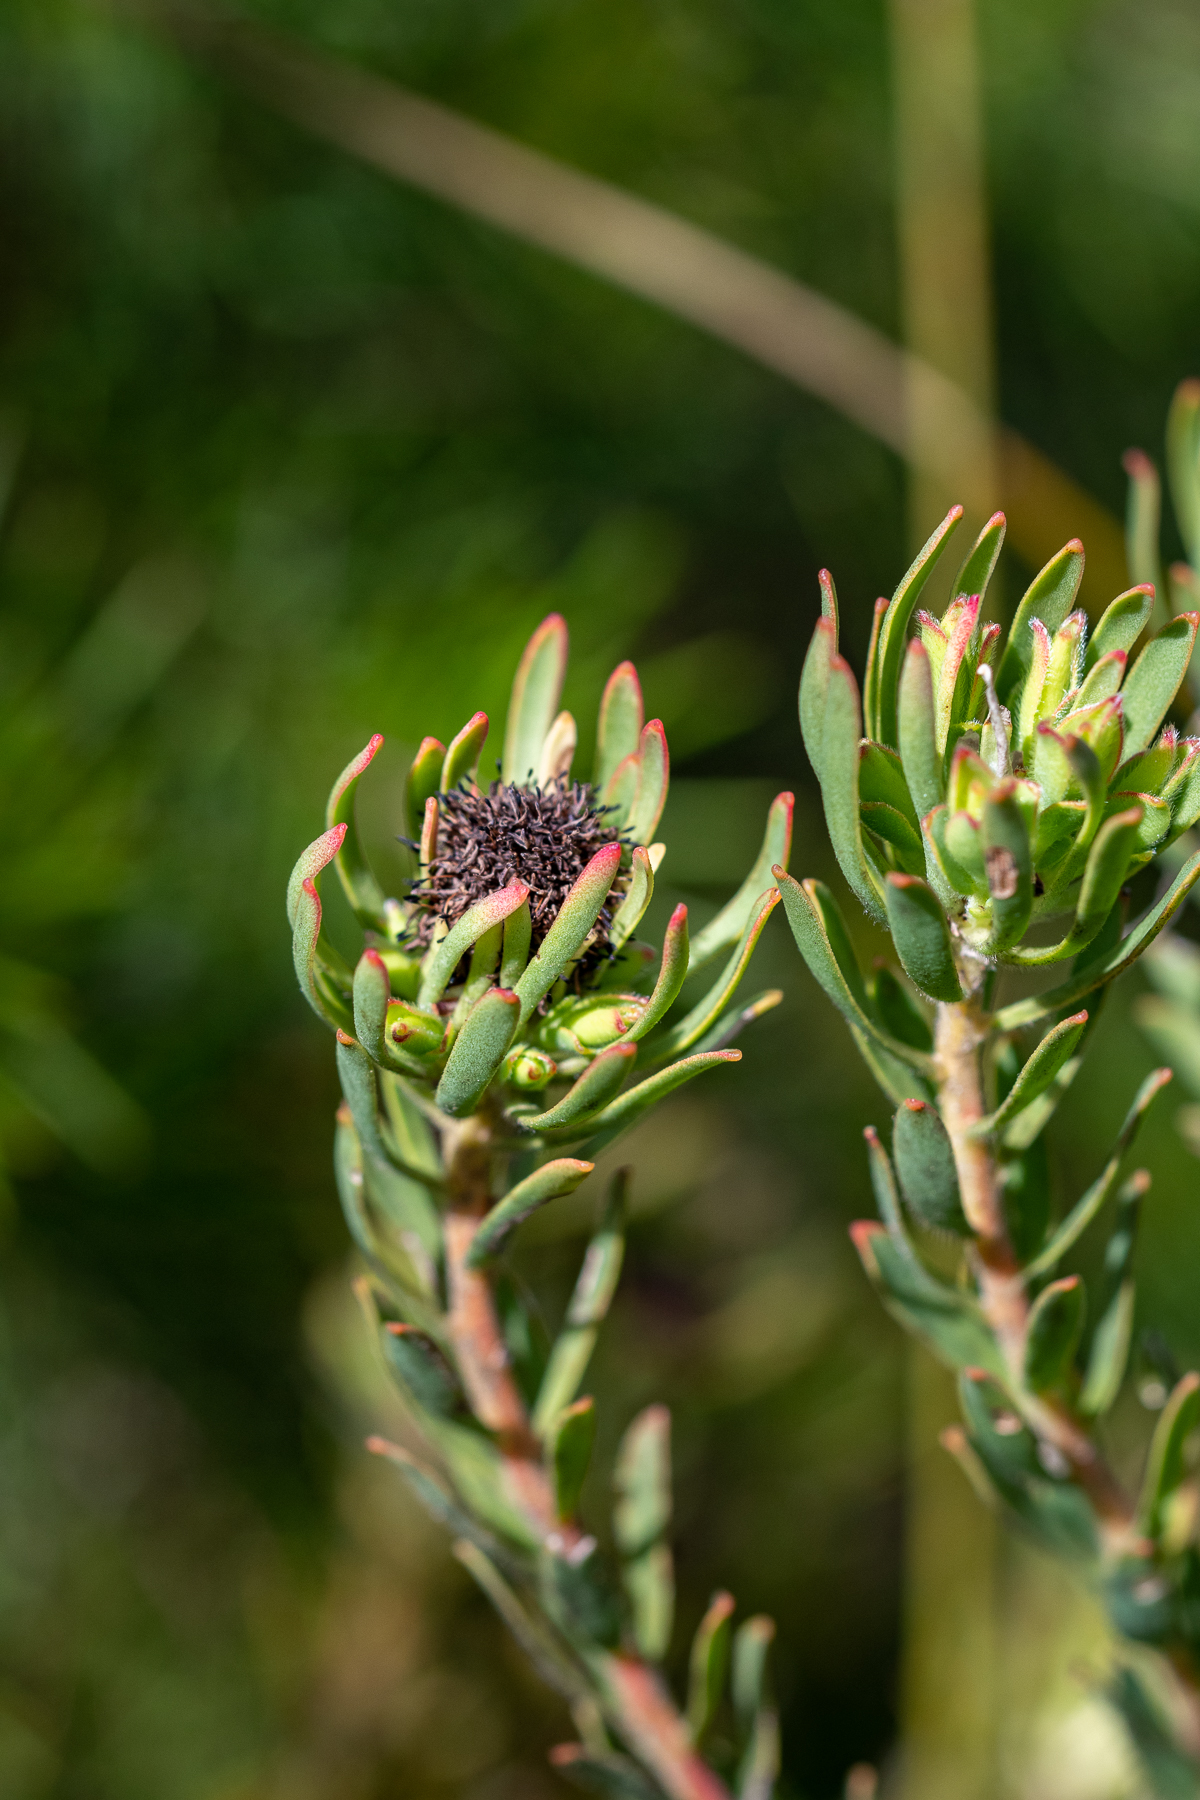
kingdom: Plantae
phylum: Tracheophyta
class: Magnoliopsida
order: Proteales
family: Proteaceae
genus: Leucadendron
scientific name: Leucadendron modestum
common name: Rough-leaf conebush
